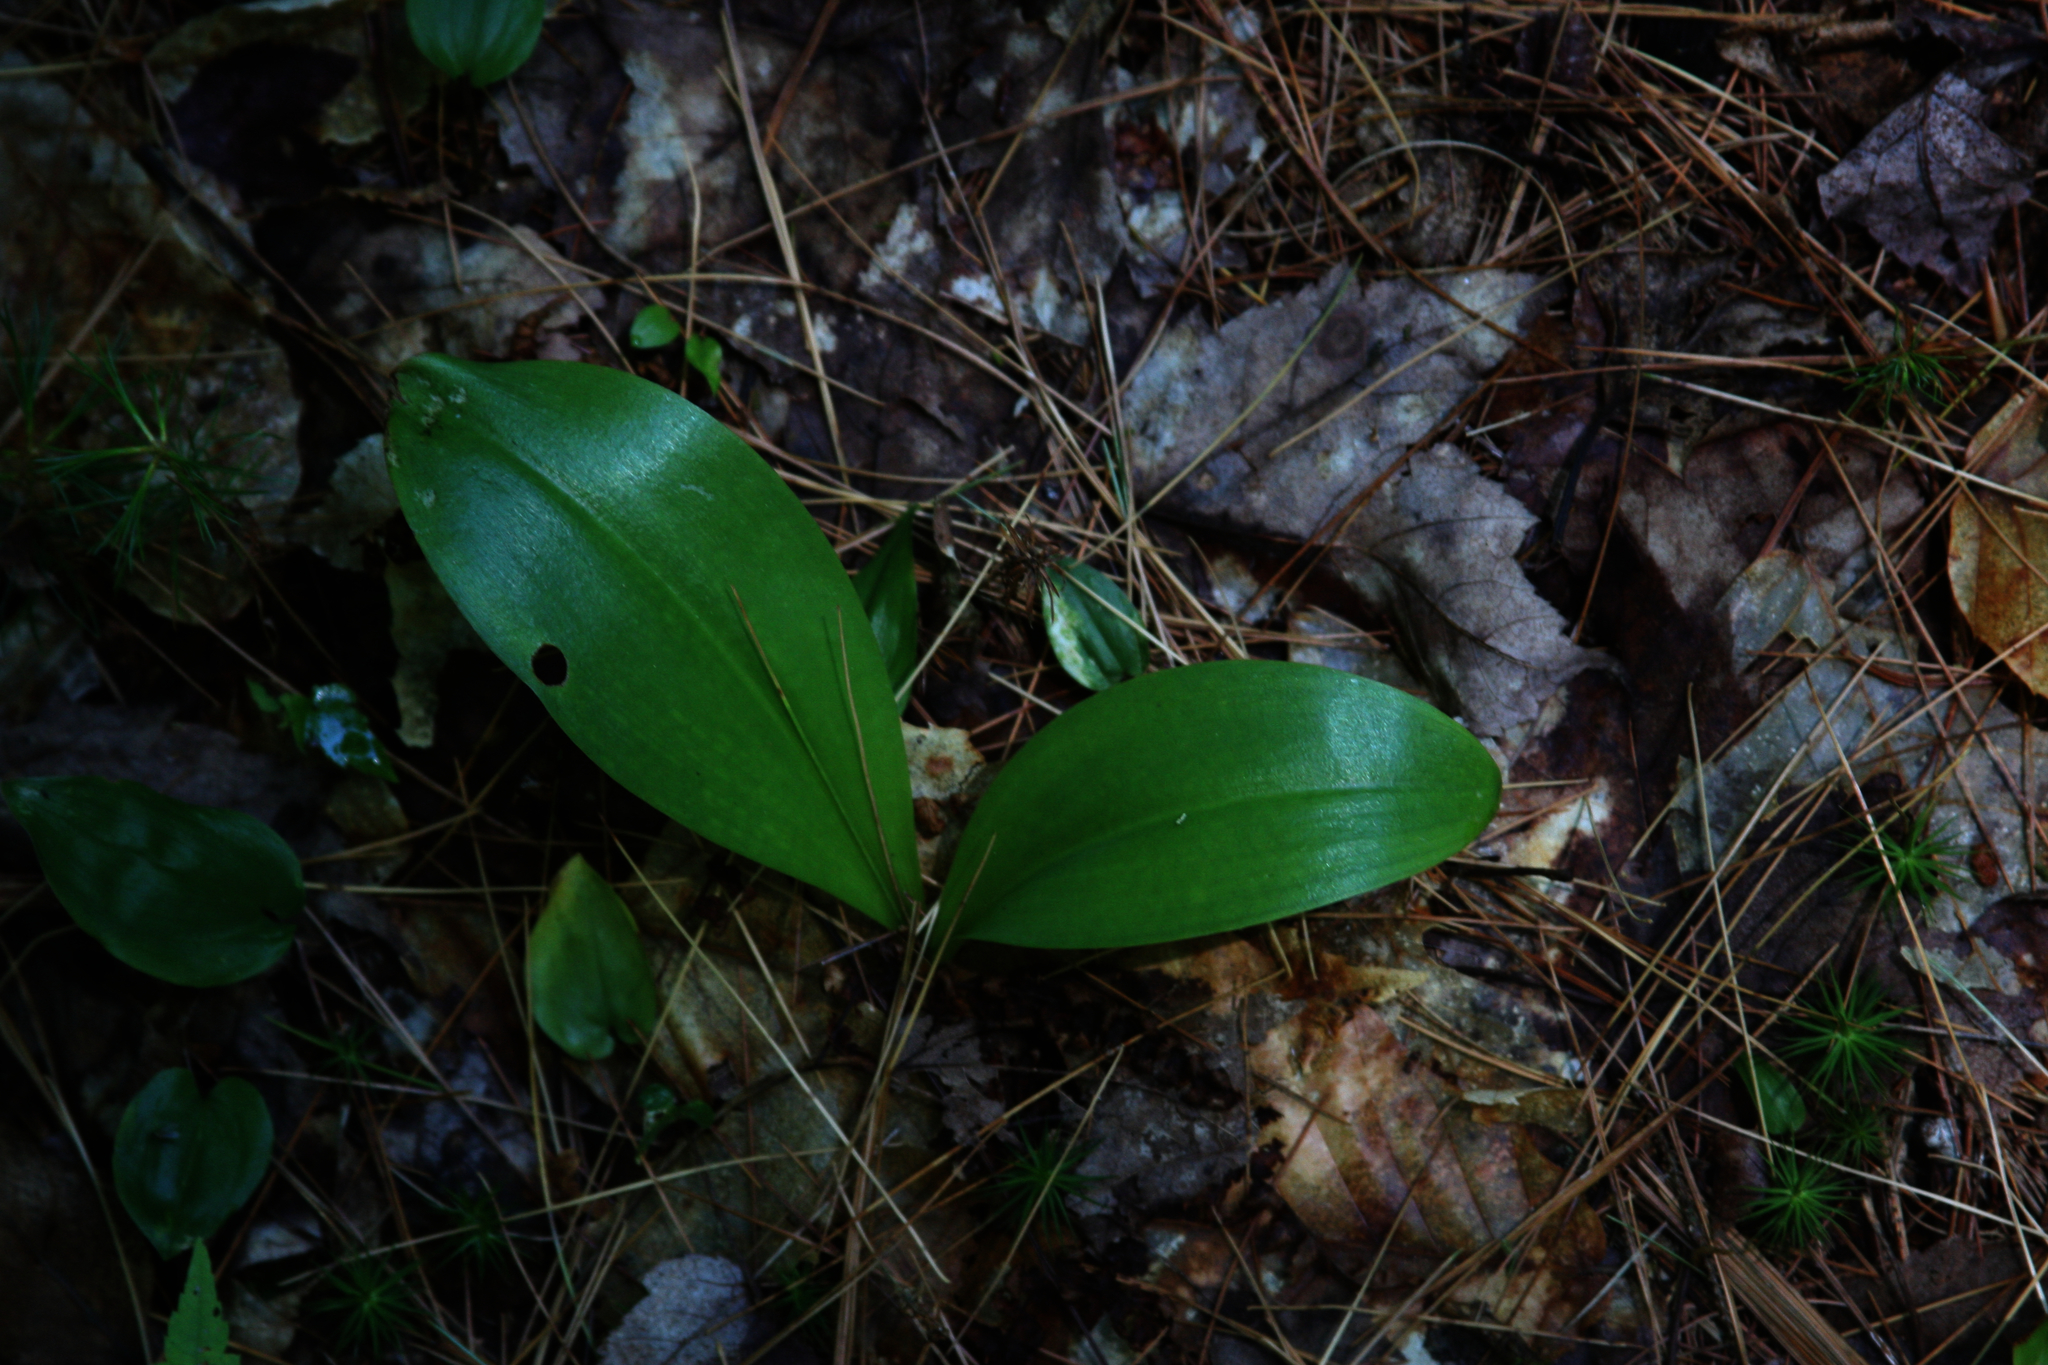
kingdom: Plantae
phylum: Tracheophyta
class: Liliopsida
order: Liliales
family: Liliaceae
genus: Clintonia
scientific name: Clintonia borealis
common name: Yellow clintonia
